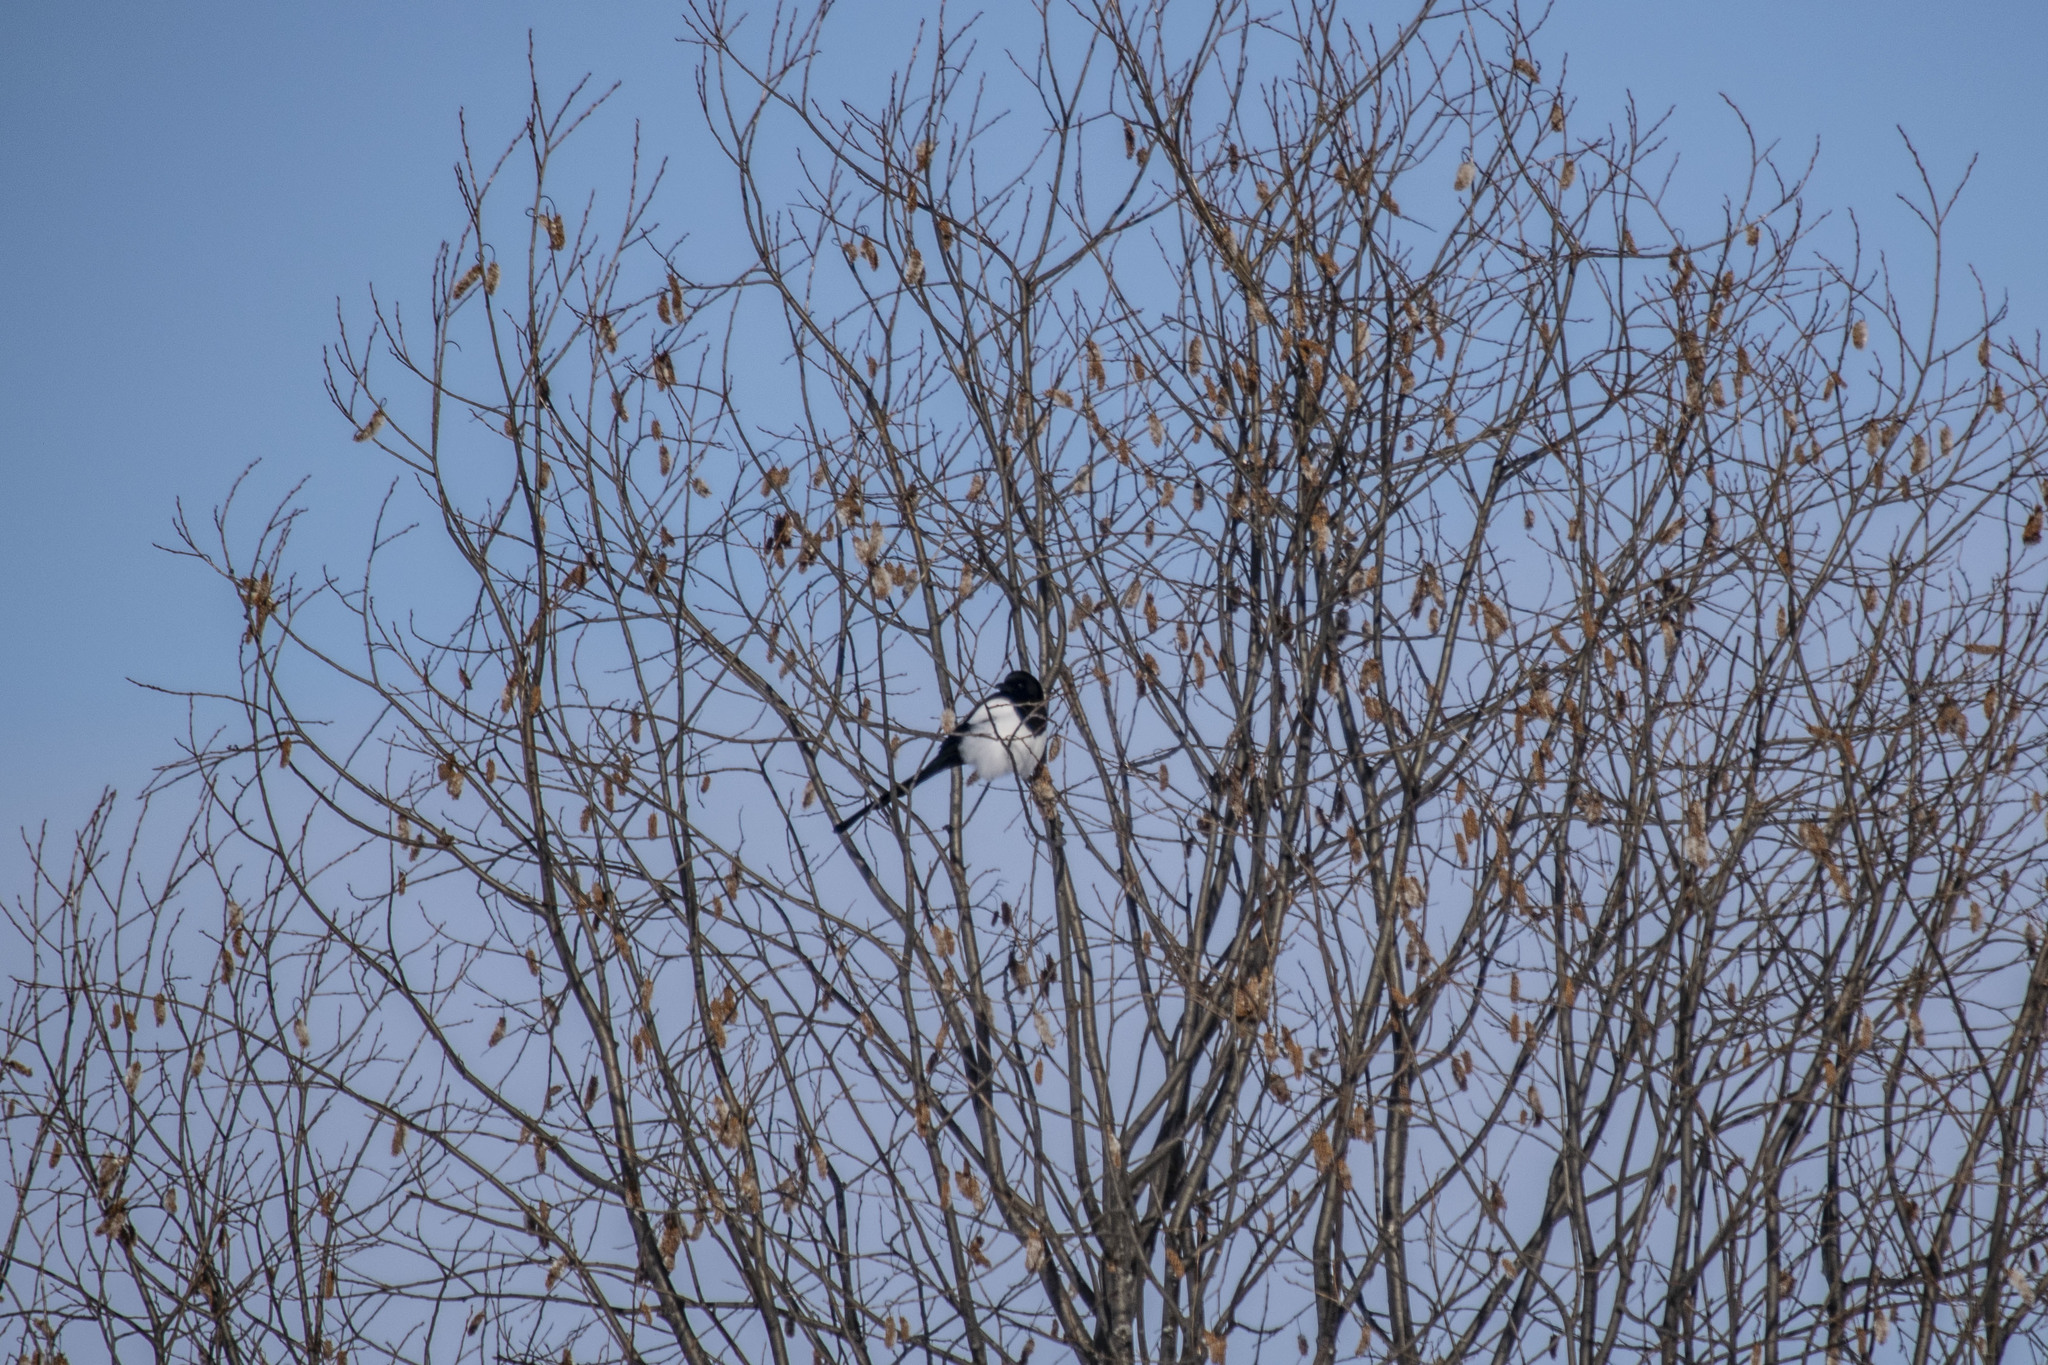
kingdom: Animalia
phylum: Chordata
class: Aves
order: Passeriformes
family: Corvidae
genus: Pica
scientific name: Pica pica
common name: Eurasian magpie
